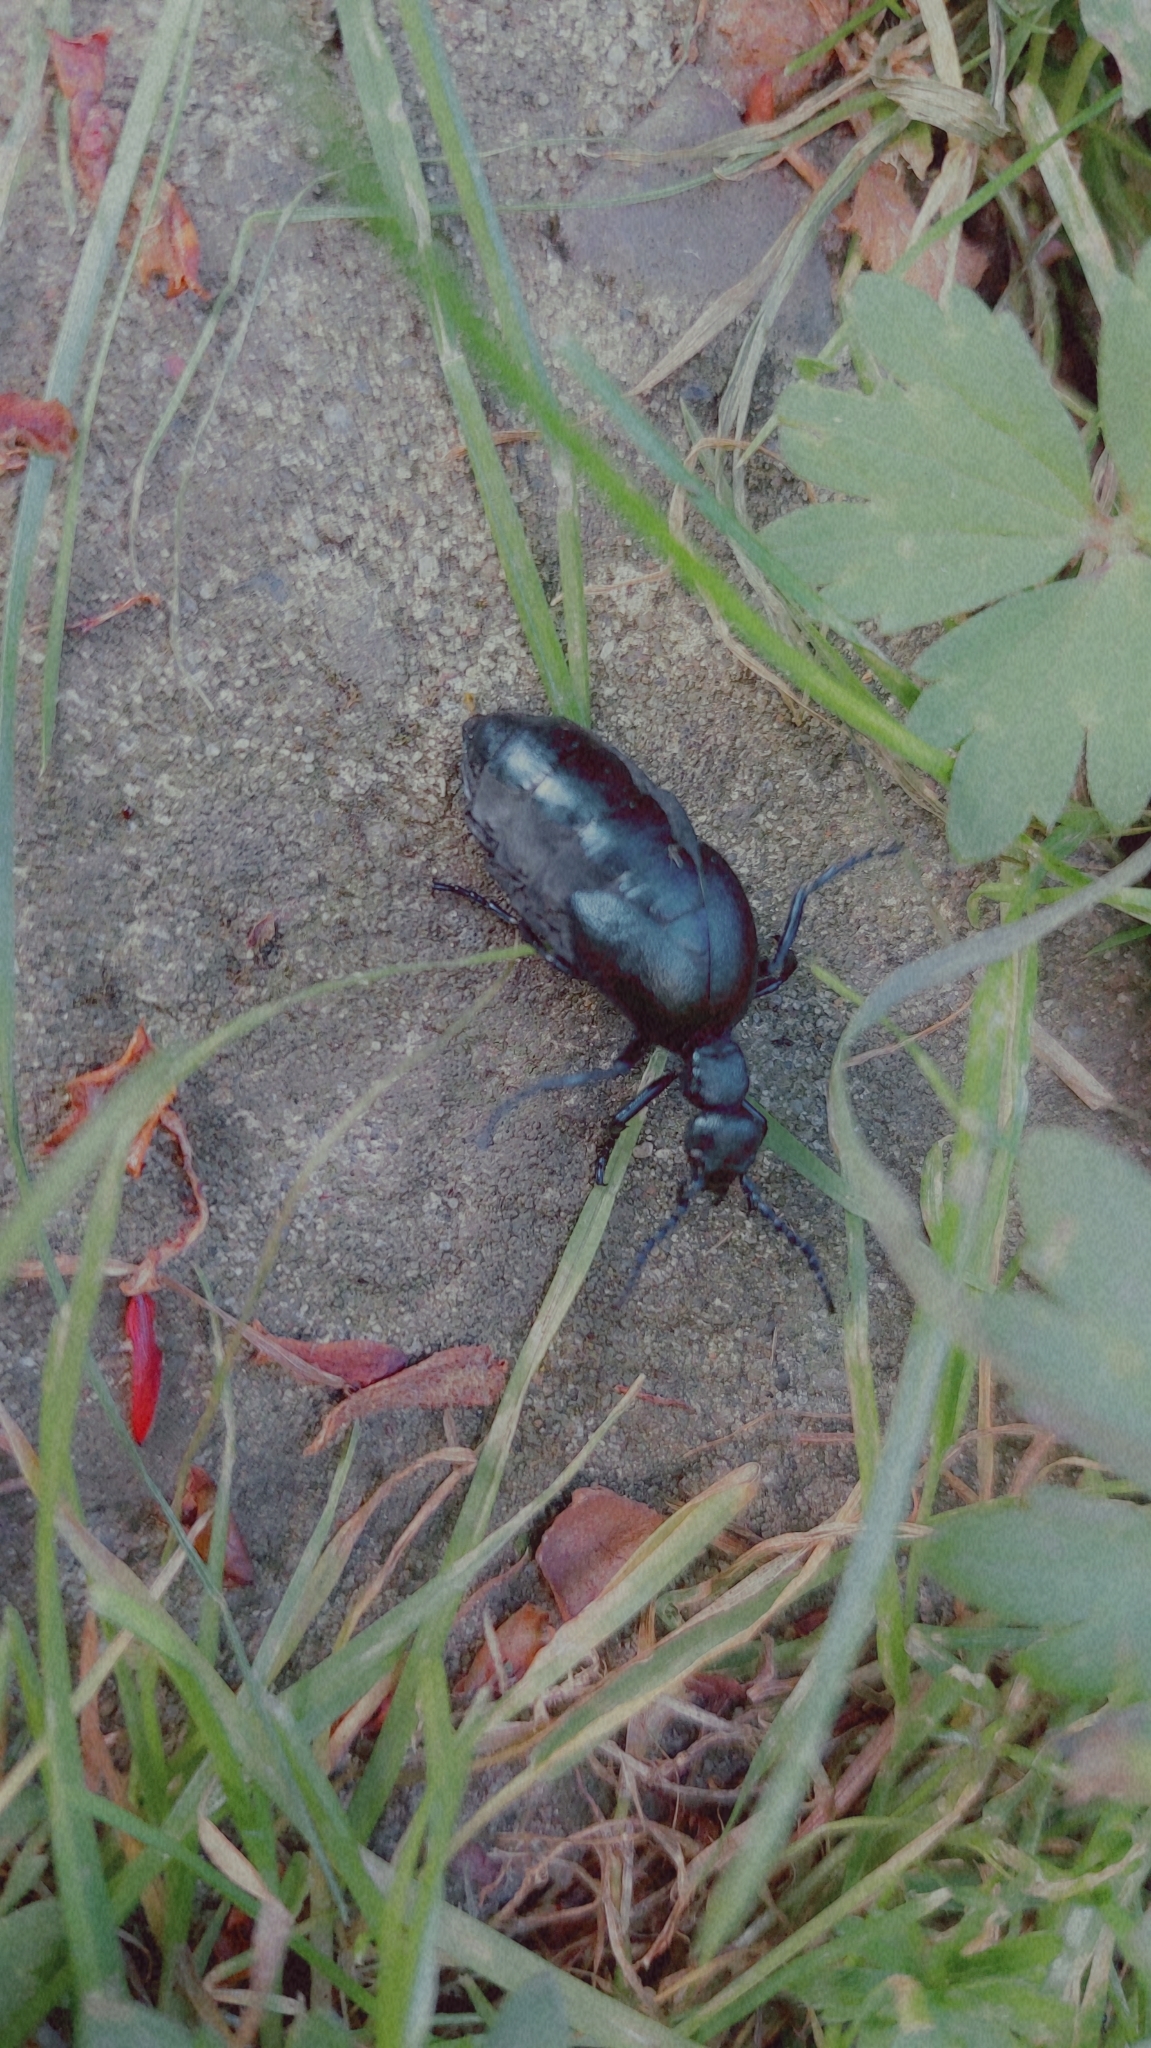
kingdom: Animalia
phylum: Arthropoda
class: Insecta
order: Coleoptera
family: Meloidae
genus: Meloe
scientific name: Meloe violaceus
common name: Violet oil-beetle
